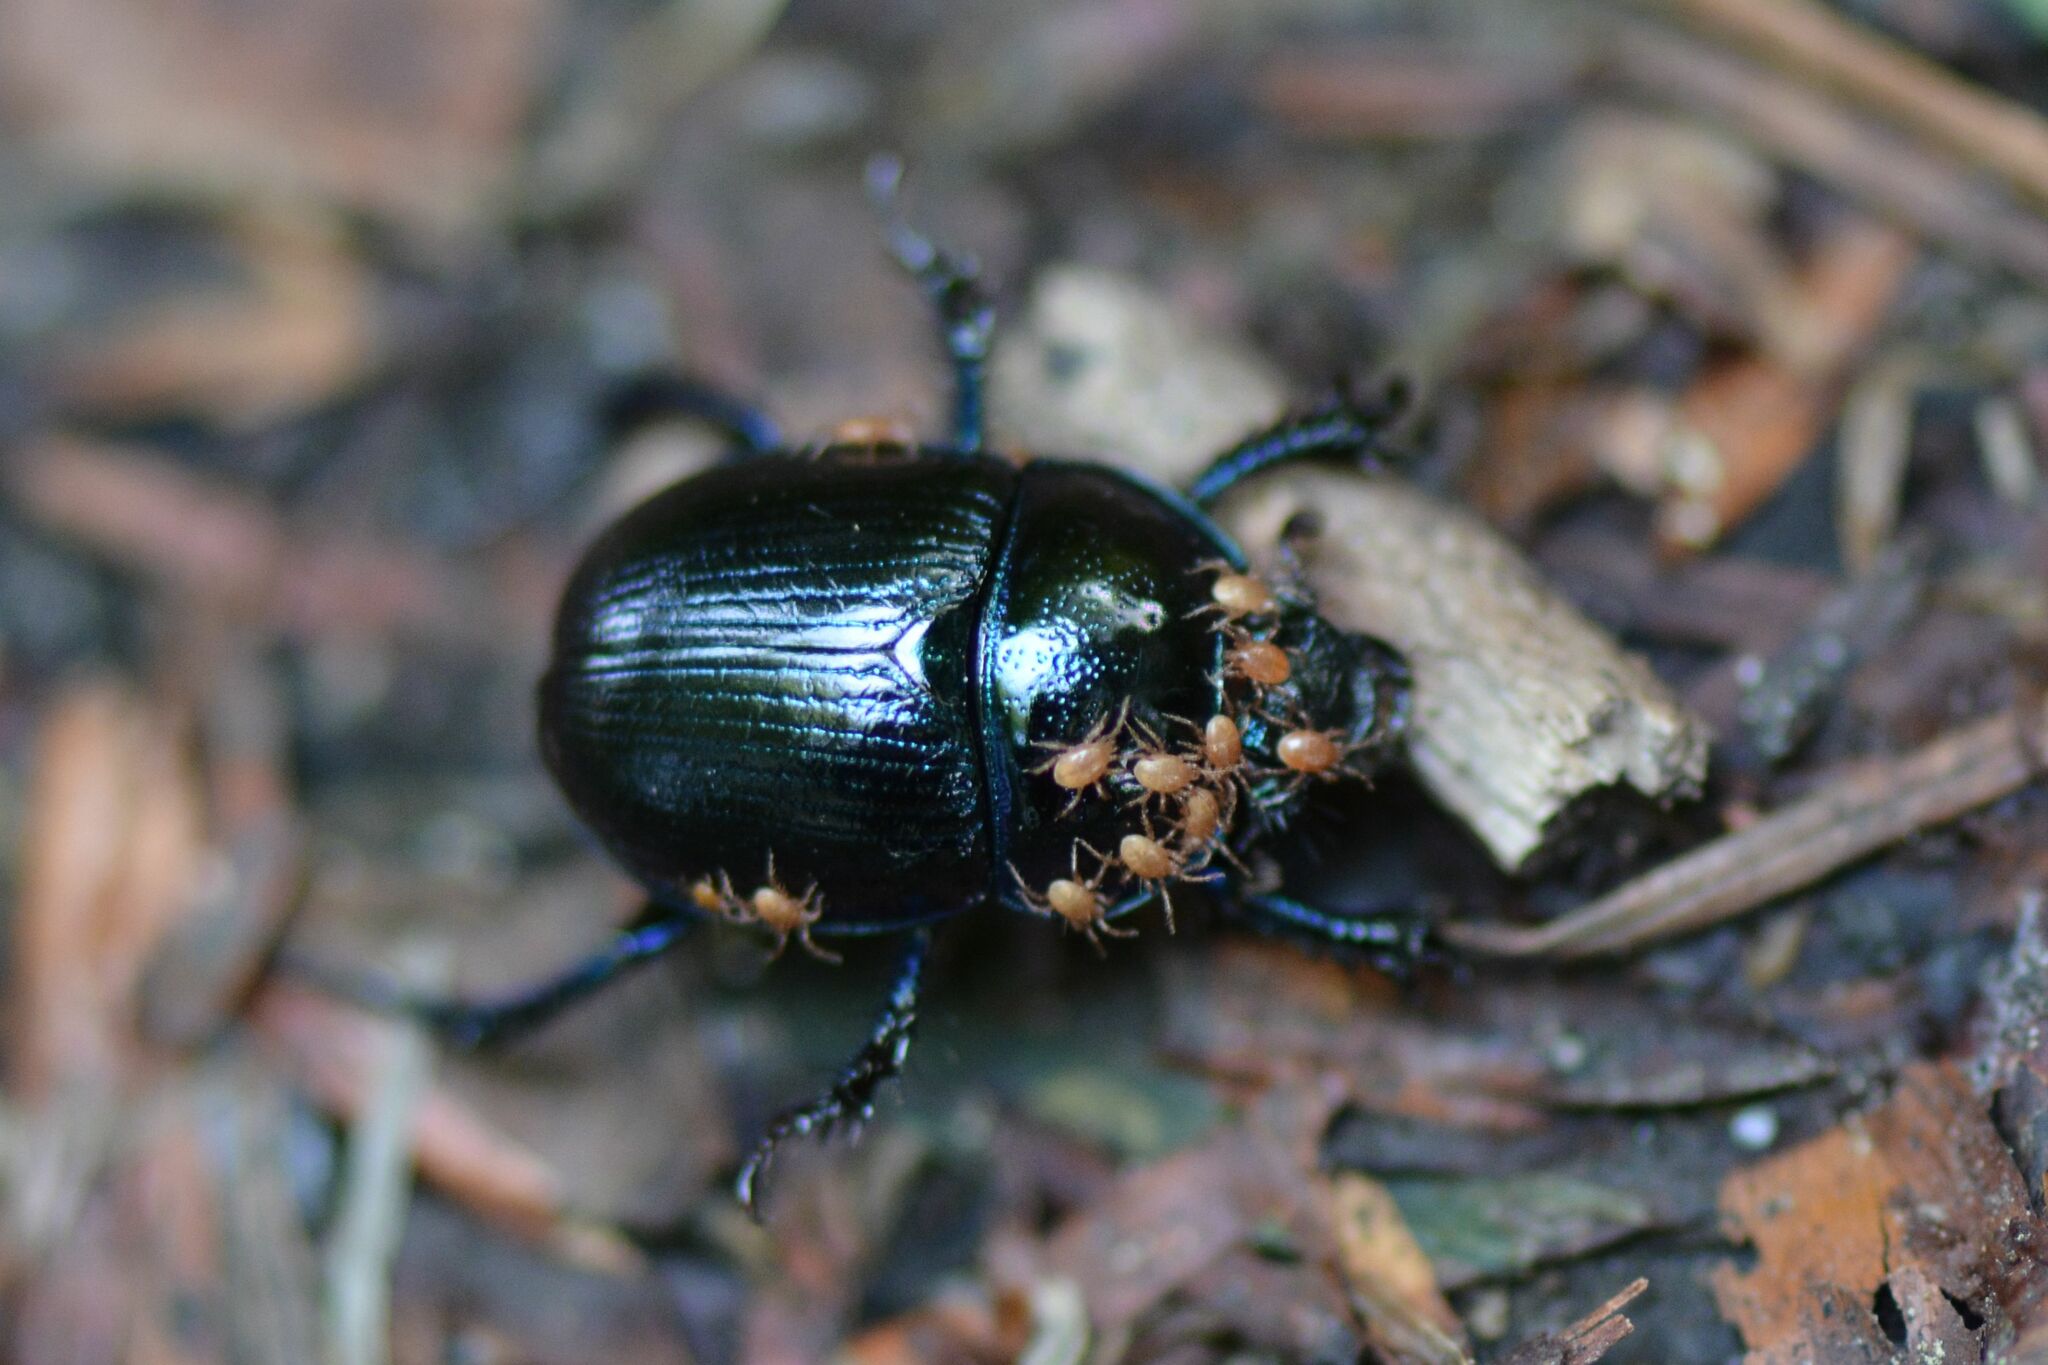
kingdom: Animalia
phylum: Arthropoda
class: Insecta
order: Coleoptera
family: Geotrupidae
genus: Anoplotrupes
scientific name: Anoplotrupes stercorosus
